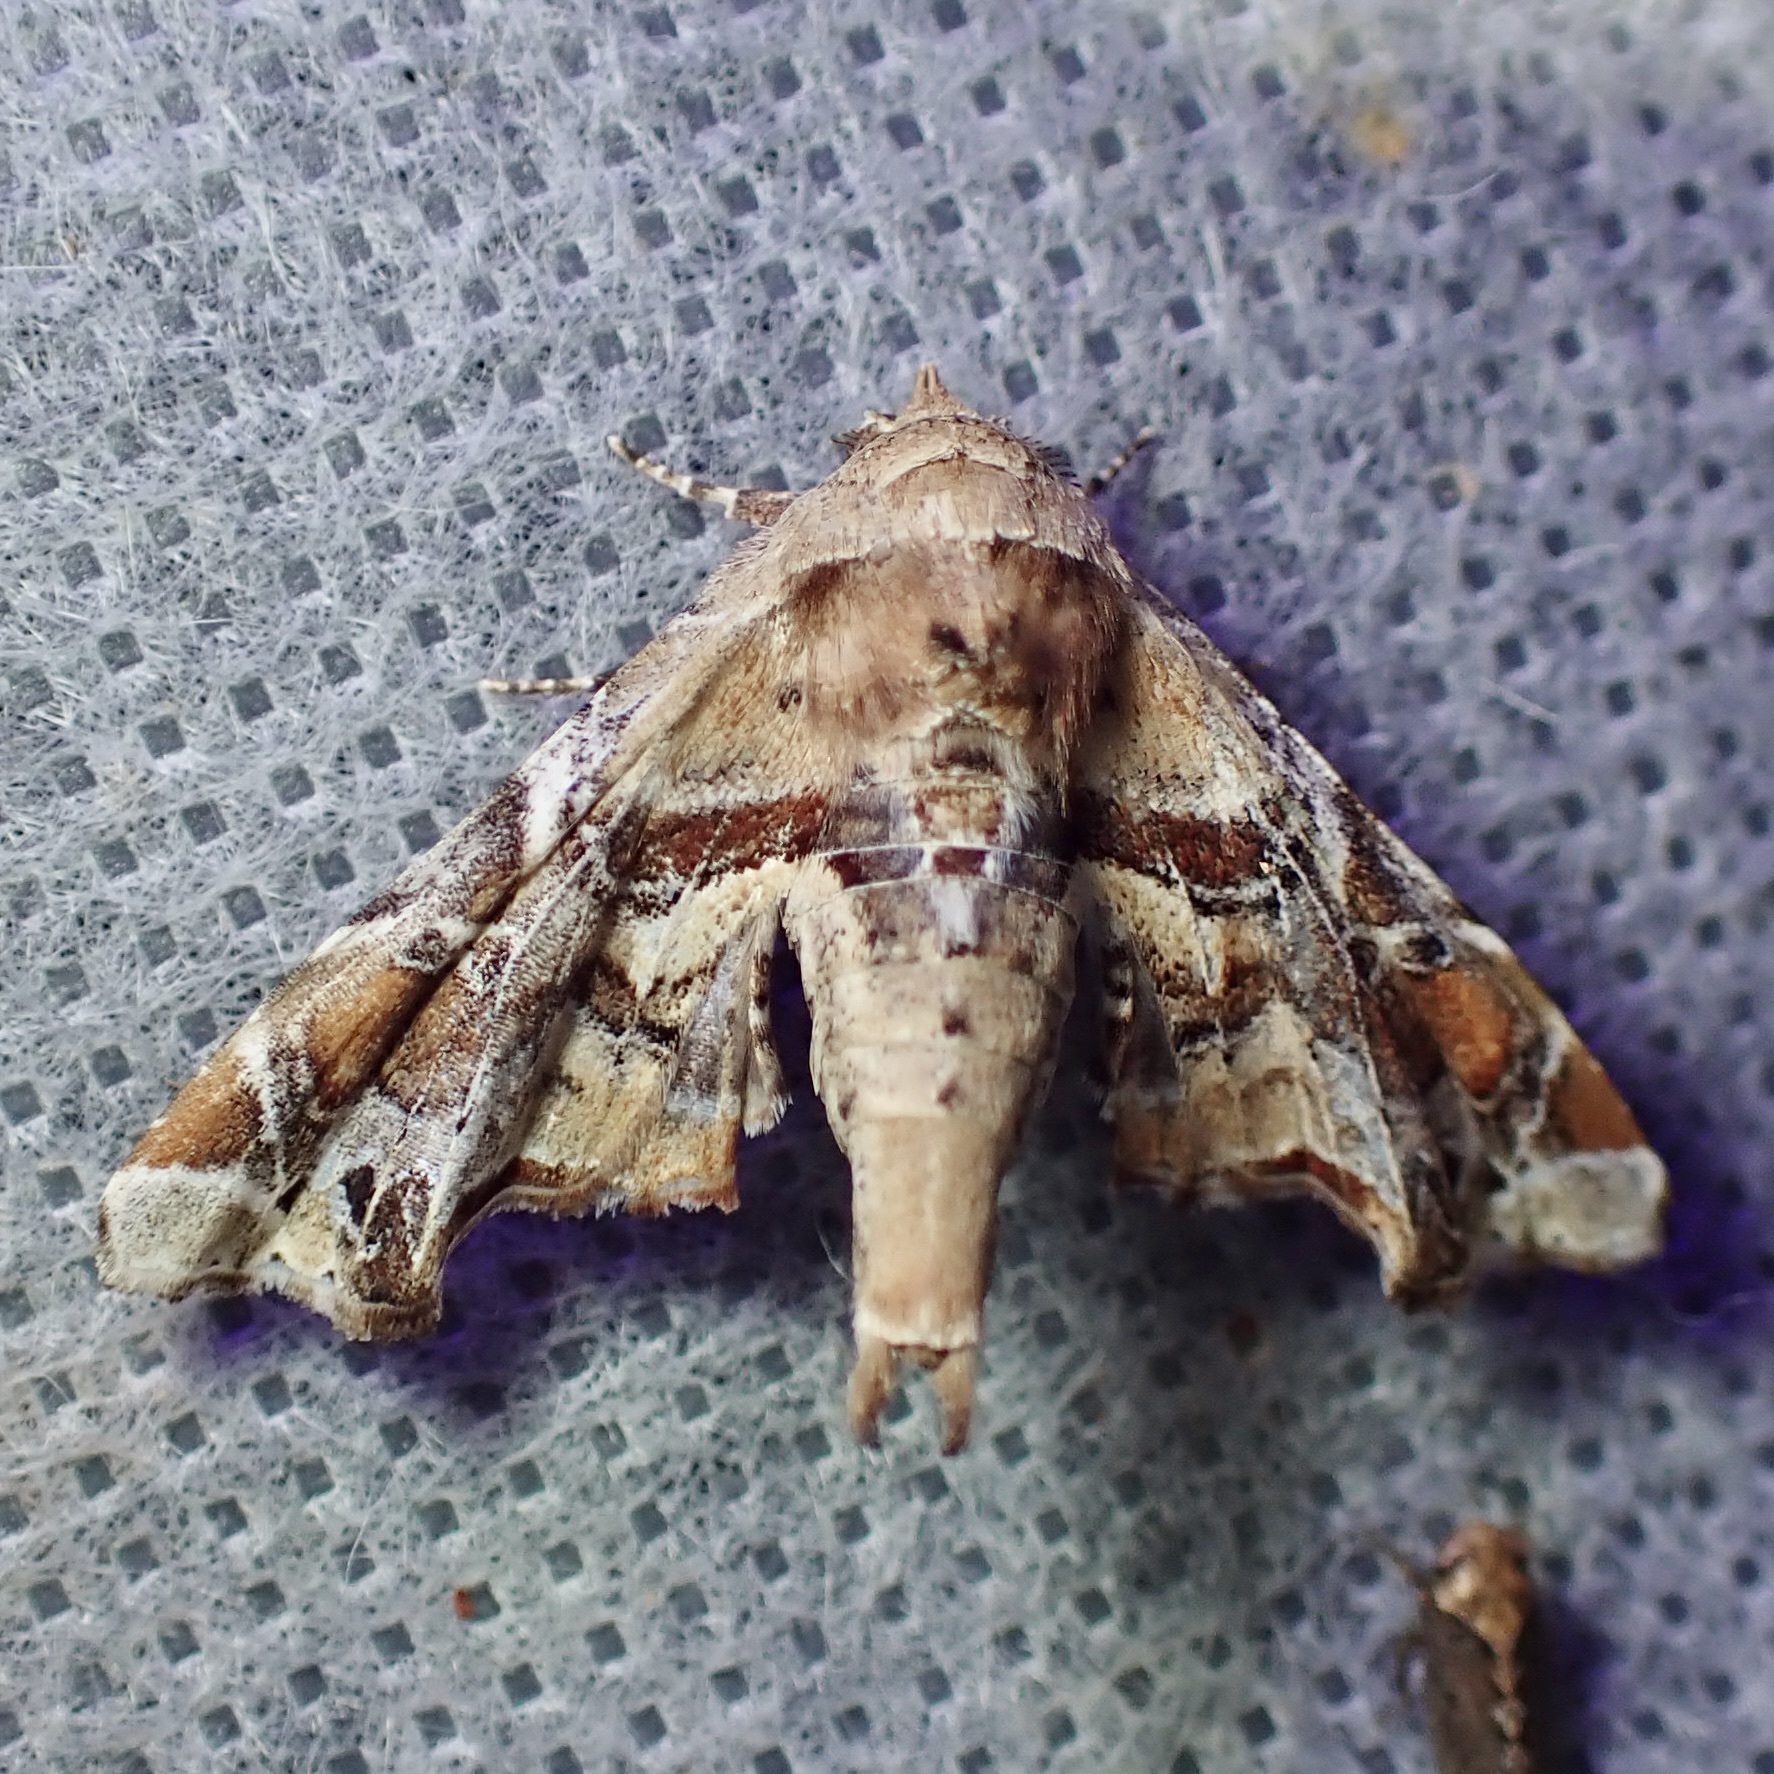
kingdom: Animalia
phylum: Arthropoda
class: Insecta
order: Lepidoptera
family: Euteliidae
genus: Eutelia
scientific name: Eutelia furcata
